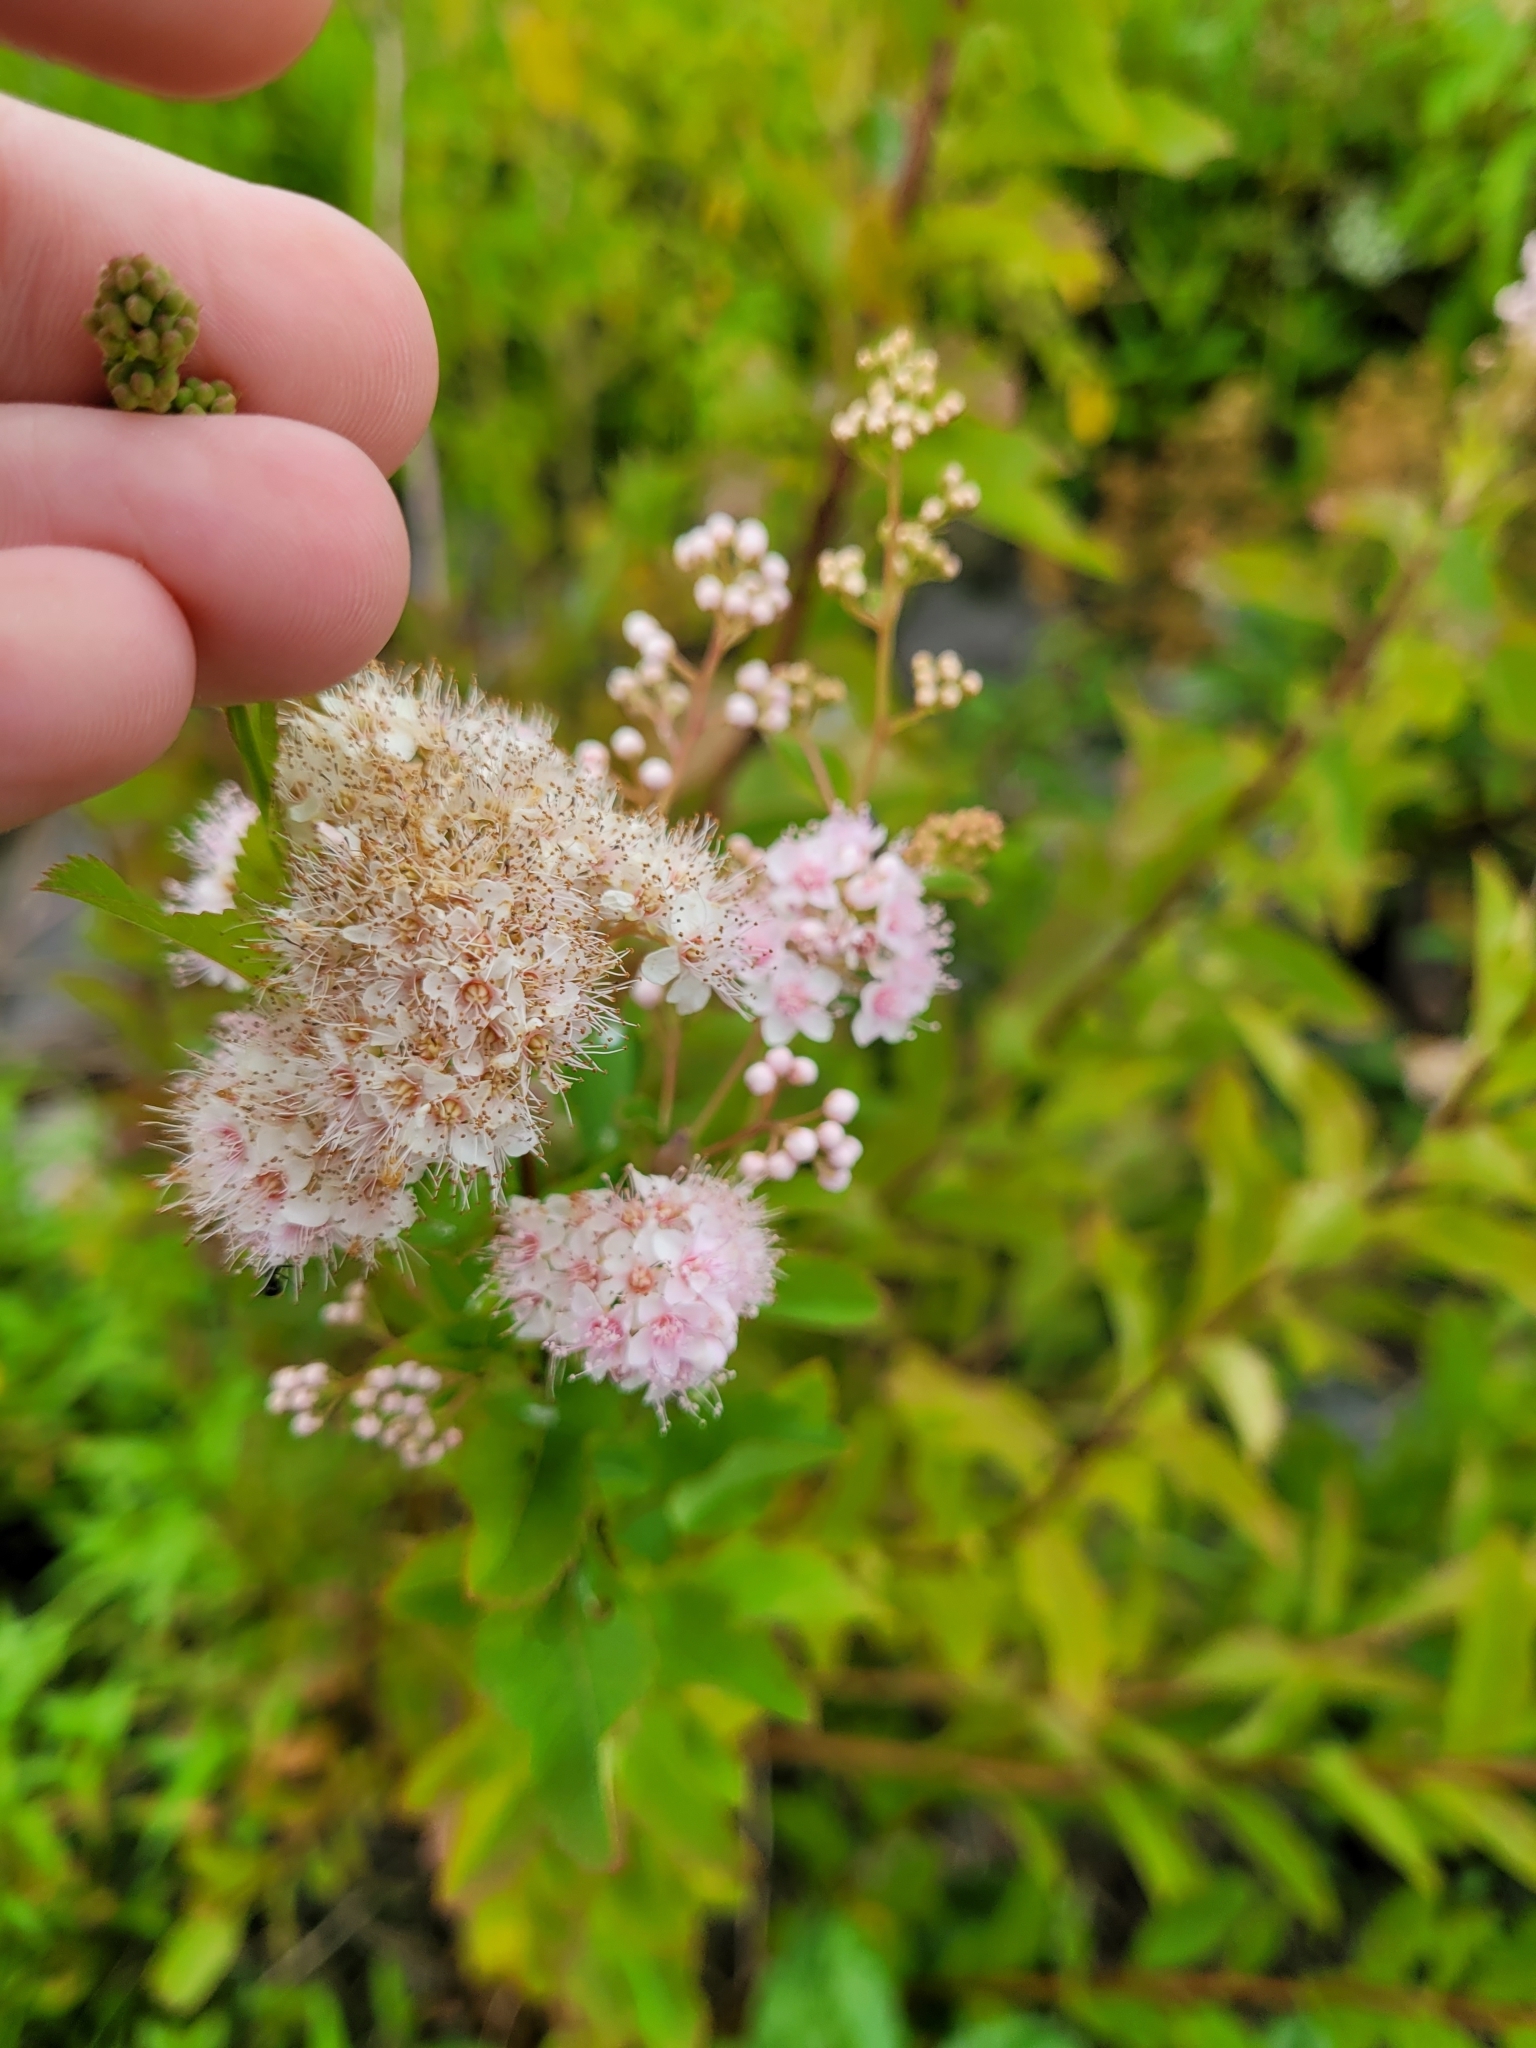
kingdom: Plantae
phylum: Tracheophyta
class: Magnoliopsida
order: Rosales
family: Rosaceae
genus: Spiraea
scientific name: Spiraea alba
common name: Pale bridewort
